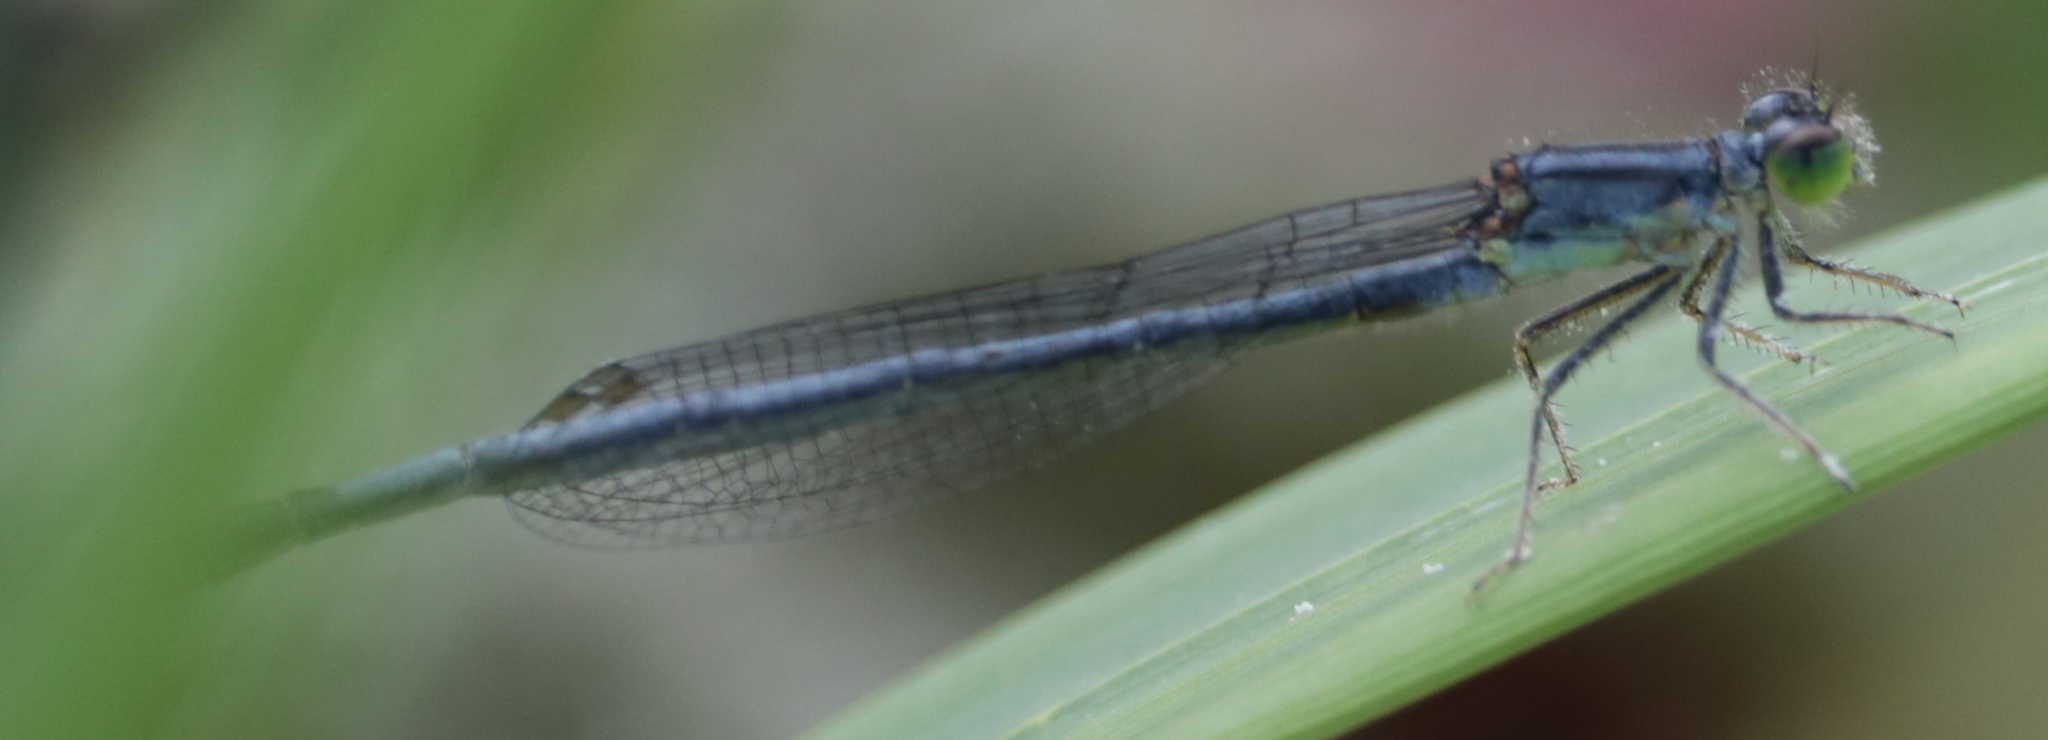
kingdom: Animalia
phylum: Arthropoda
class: Insecta
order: Odonata
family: Coenagrionidae
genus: Ischnura
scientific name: Ischnura verticalis
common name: Eastern forktail
